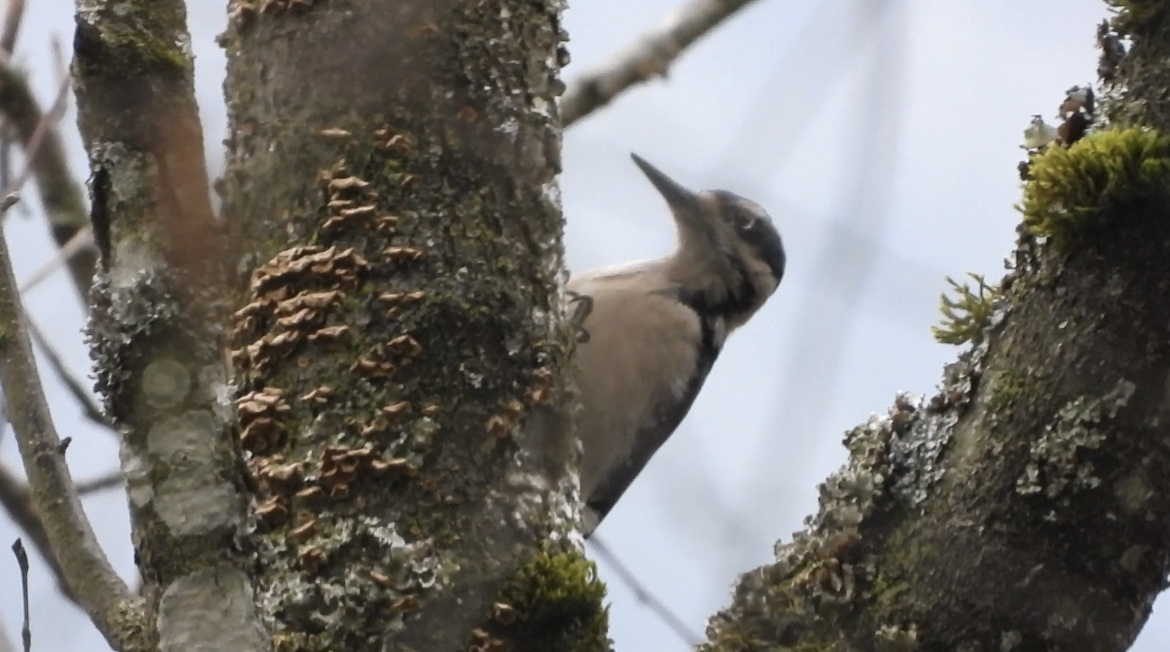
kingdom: Animalia
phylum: Chordata
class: Aves
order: Piciformes
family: Picidae
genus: Leuconotopicus
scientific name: Leuconotopicus villosus
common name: Hairy woodpecker
